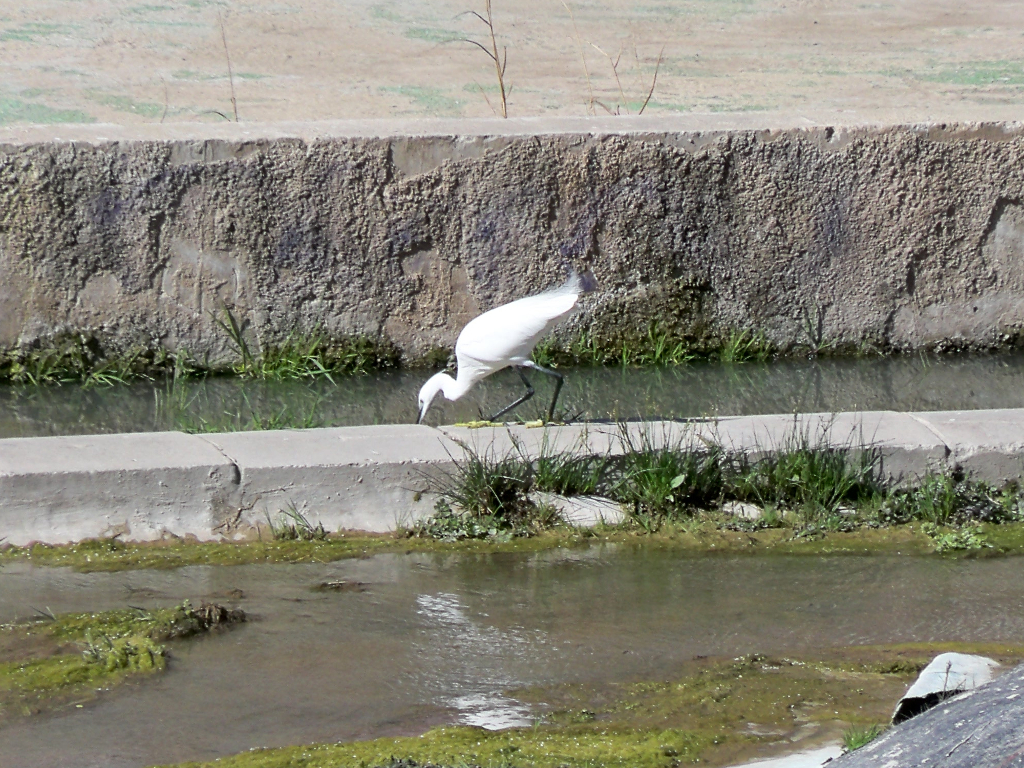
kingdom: Animalia
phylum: Chordata
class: Aves
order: Pelecaniformes
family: Ardeidae
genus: Egretta
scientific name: Egretta garzetta
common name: Little egret
